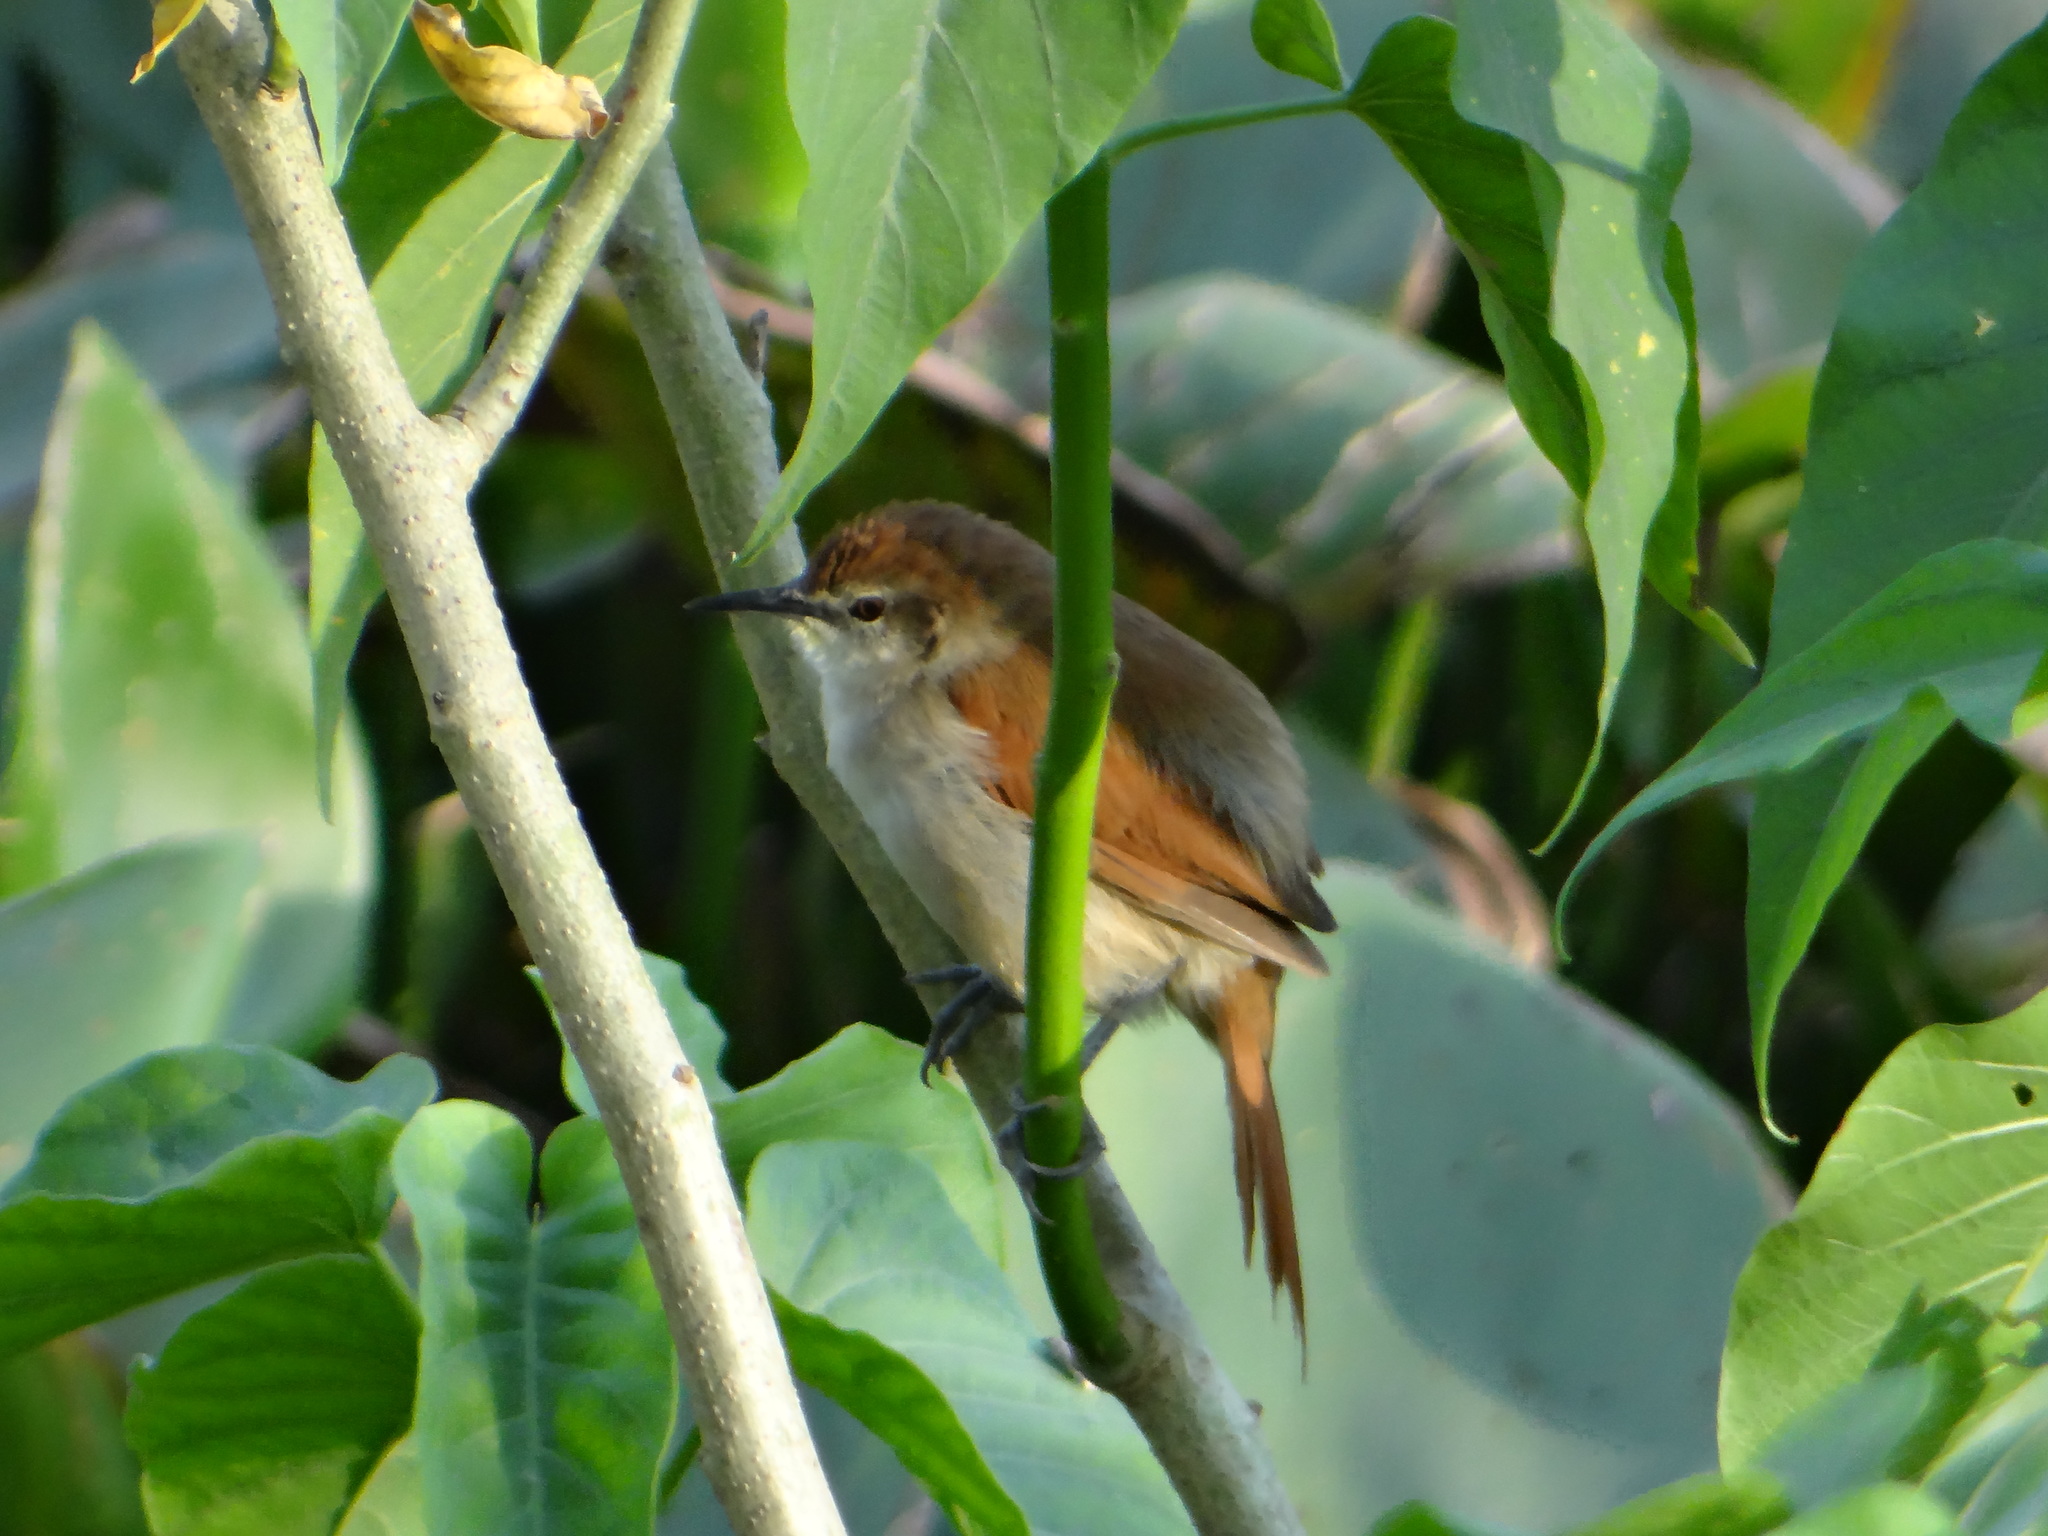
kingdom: Animalia
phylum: Chordata
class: Aves
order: Passeriformes
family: Furnariidae
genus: Certhiaxis
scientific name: Certhiaxis cinnamomeus
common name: Yellow-chinned spinetail
